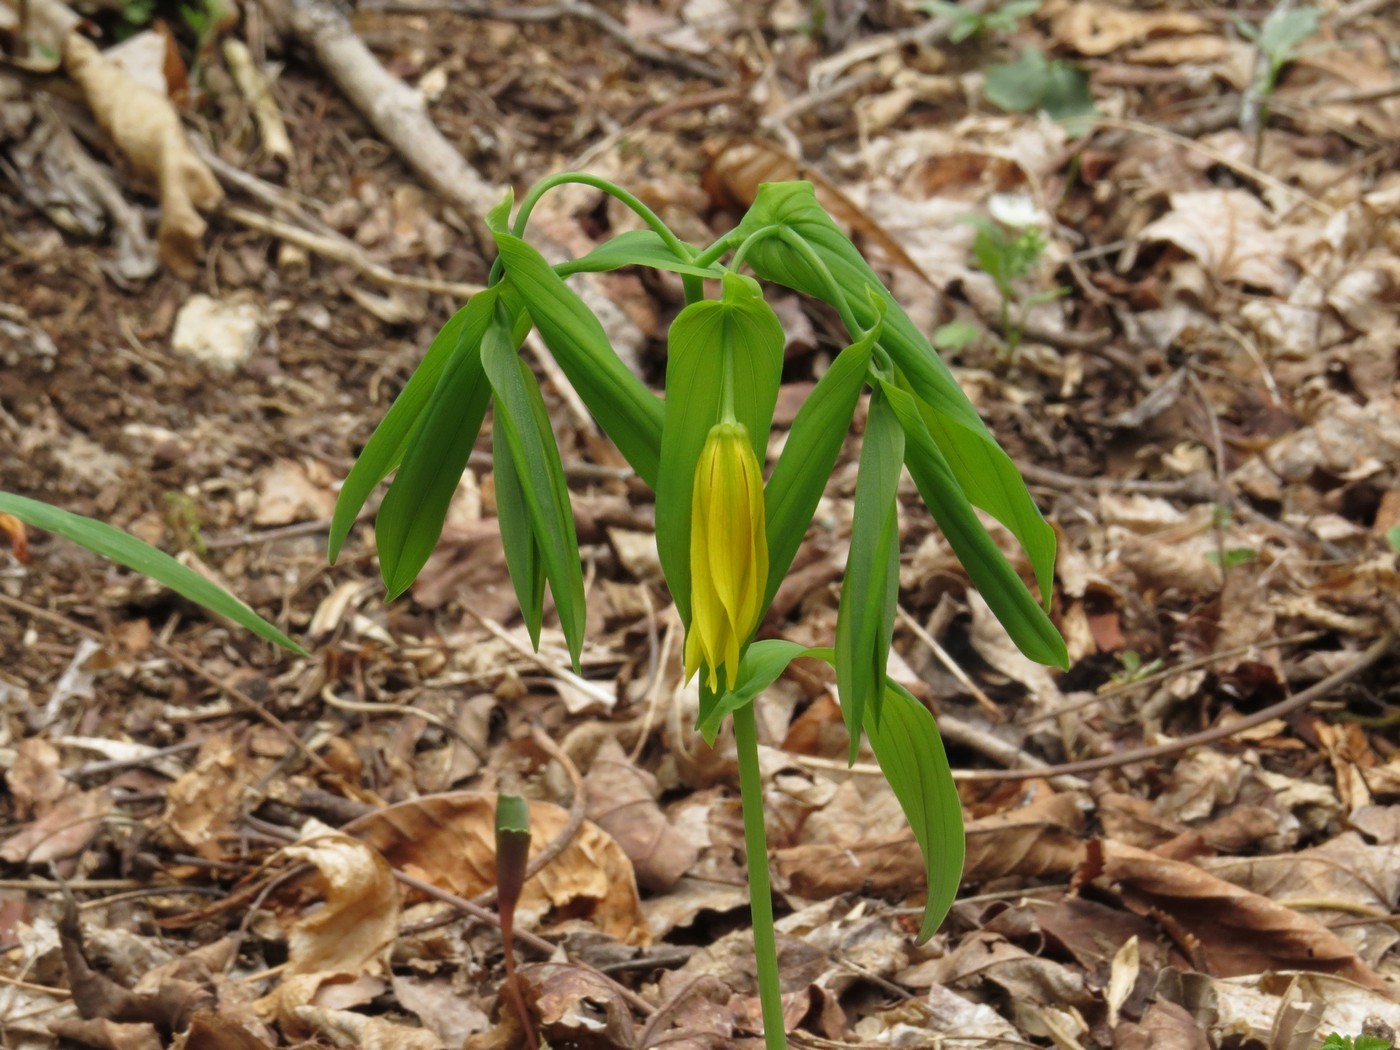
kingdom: Plantae
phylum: Tracheophyta
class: Liliopsida
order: Liliales
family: Colchicaceae
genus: Uvularia
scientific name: Uvularia grandiflora
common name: Bellwort
